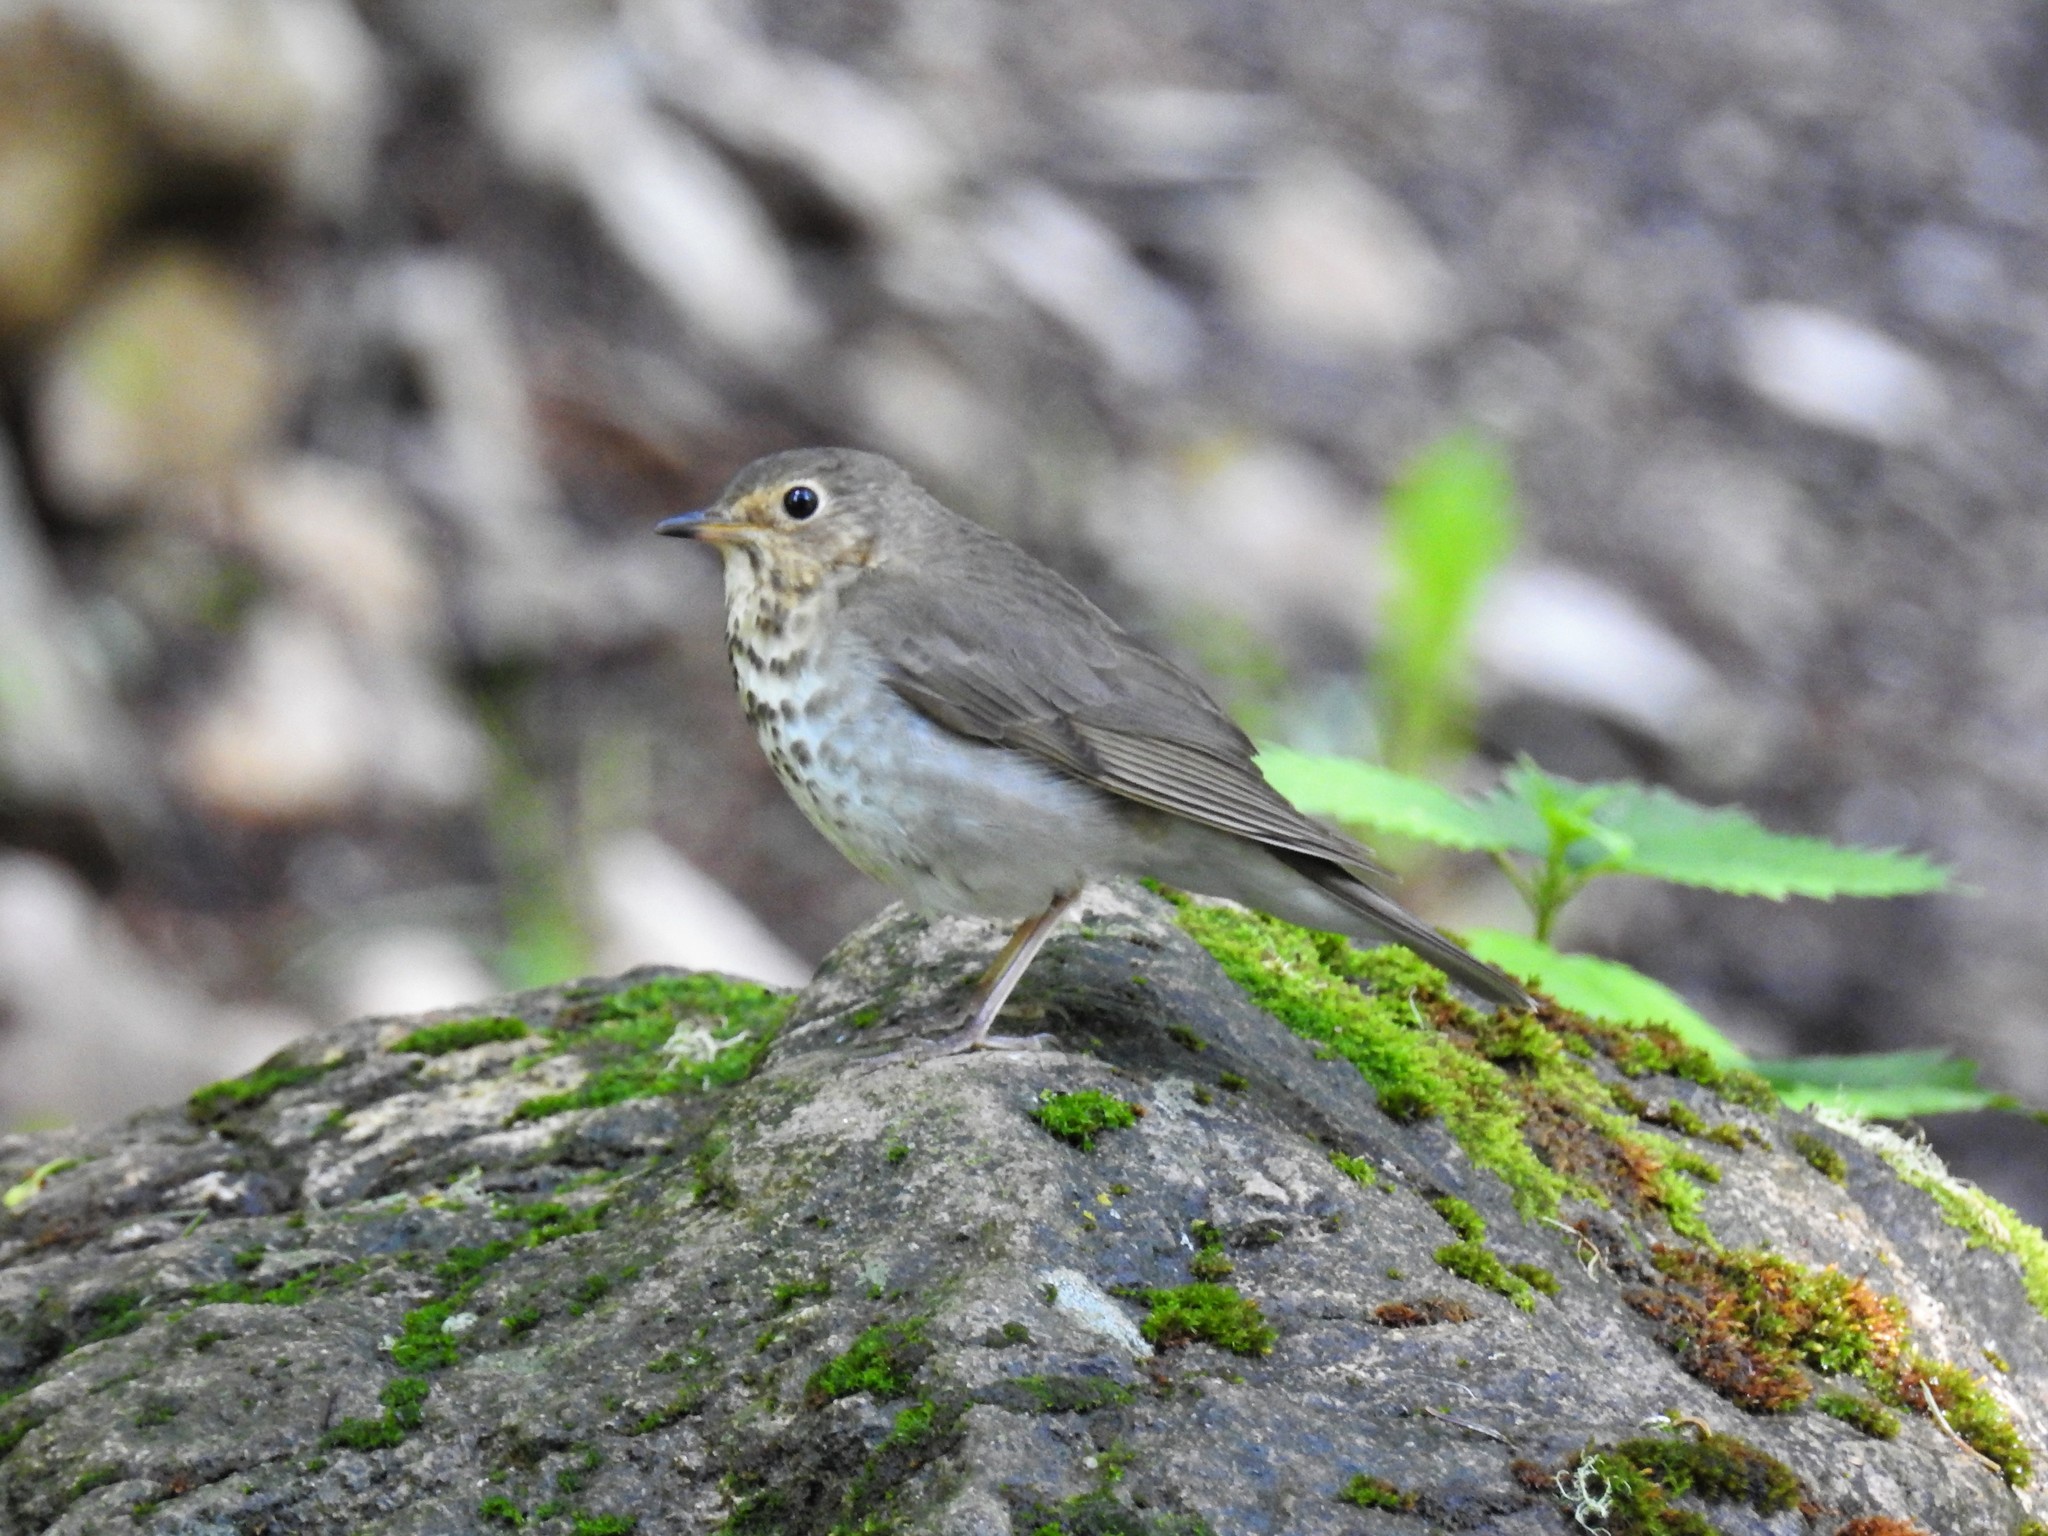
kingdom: Animalia
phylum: Chordata
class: Aves
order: Passeriformes
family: Turdidae
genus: Catharus
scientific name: Catharus ustulatus
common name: Swainson's thrush
